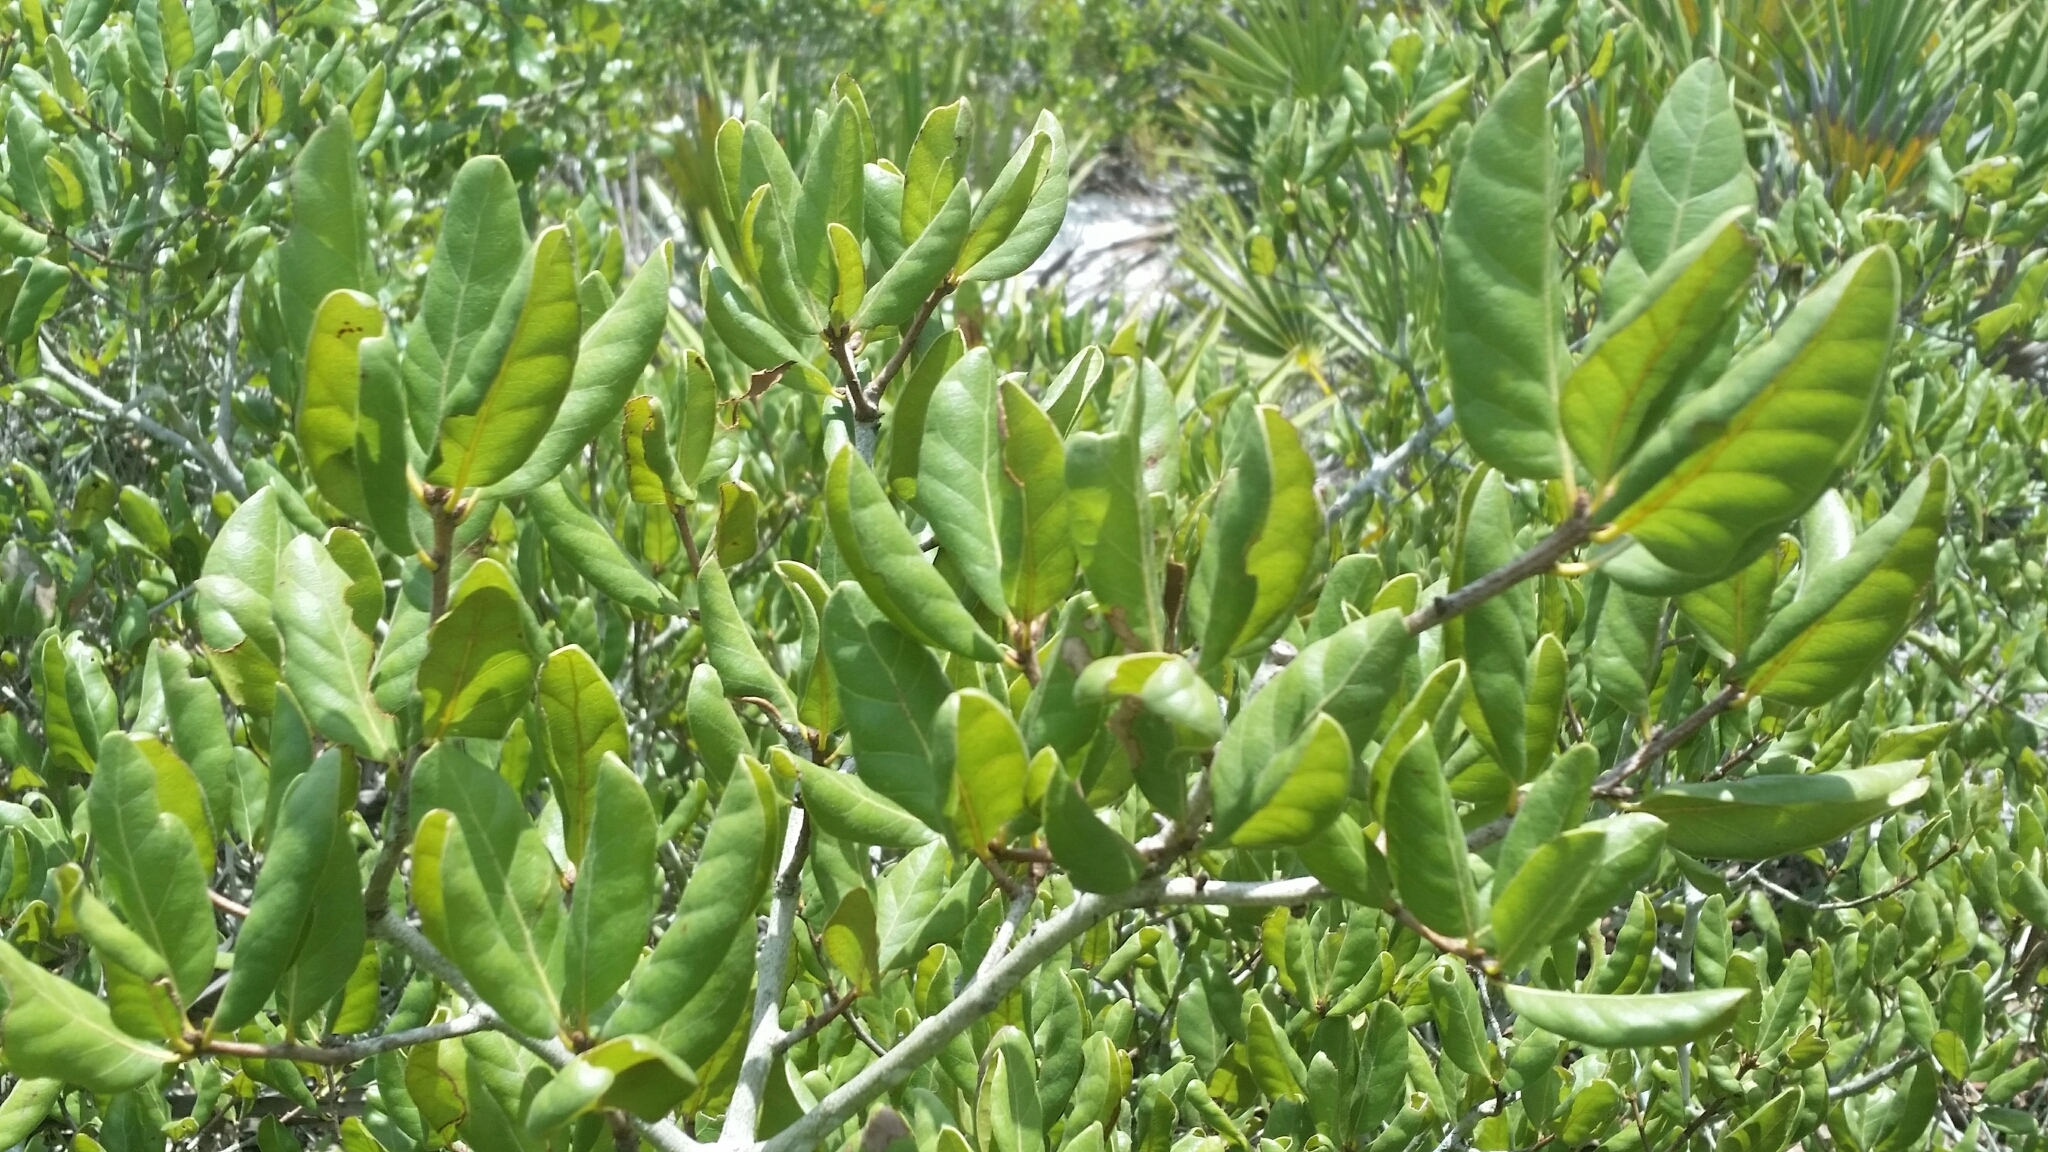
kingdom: Plantae
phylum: Tracheophyta
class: Magnoliopsida
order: Fagales
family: Fagaceae
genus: Quercus
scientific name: Quercus inopina
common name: Sandhill oak
